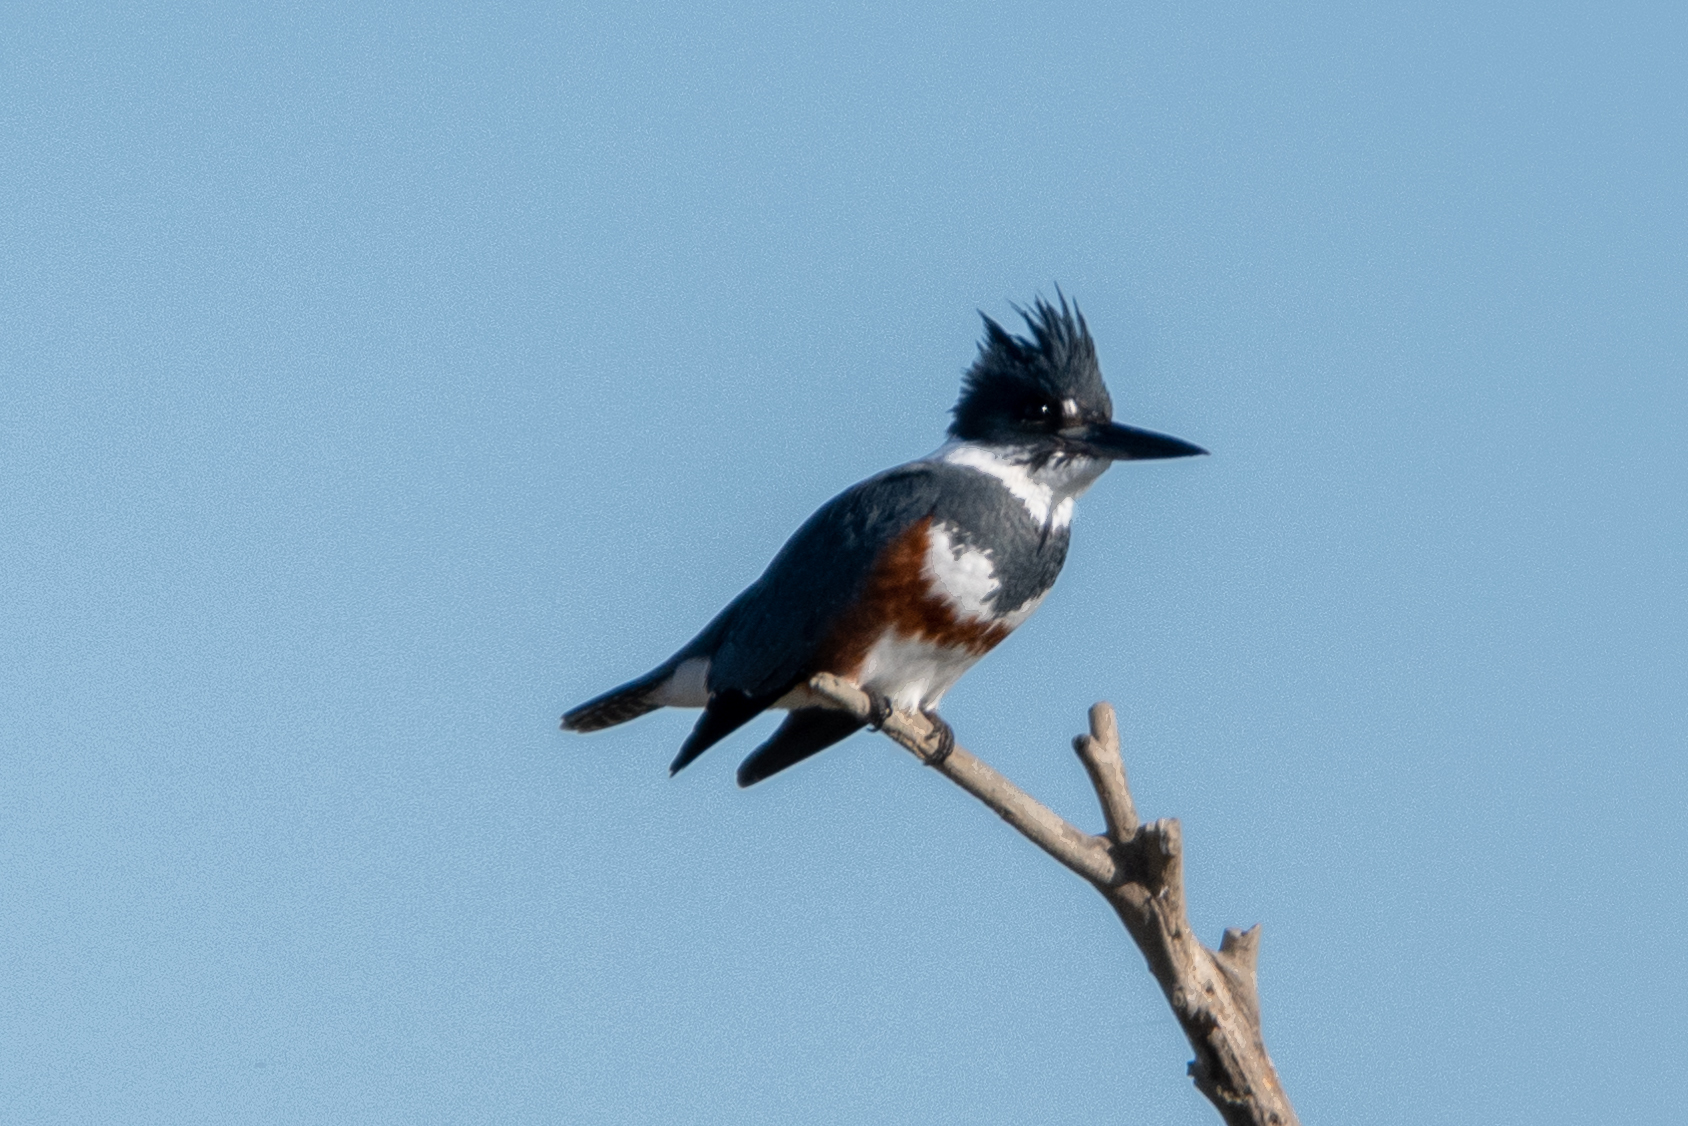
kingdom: Animalia
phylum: Chordata
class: Aves
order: Coraciiformes
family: Alcedinidae
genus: Megaceryle
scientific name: Megaceryle alcyon
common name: Belted kingfisher
